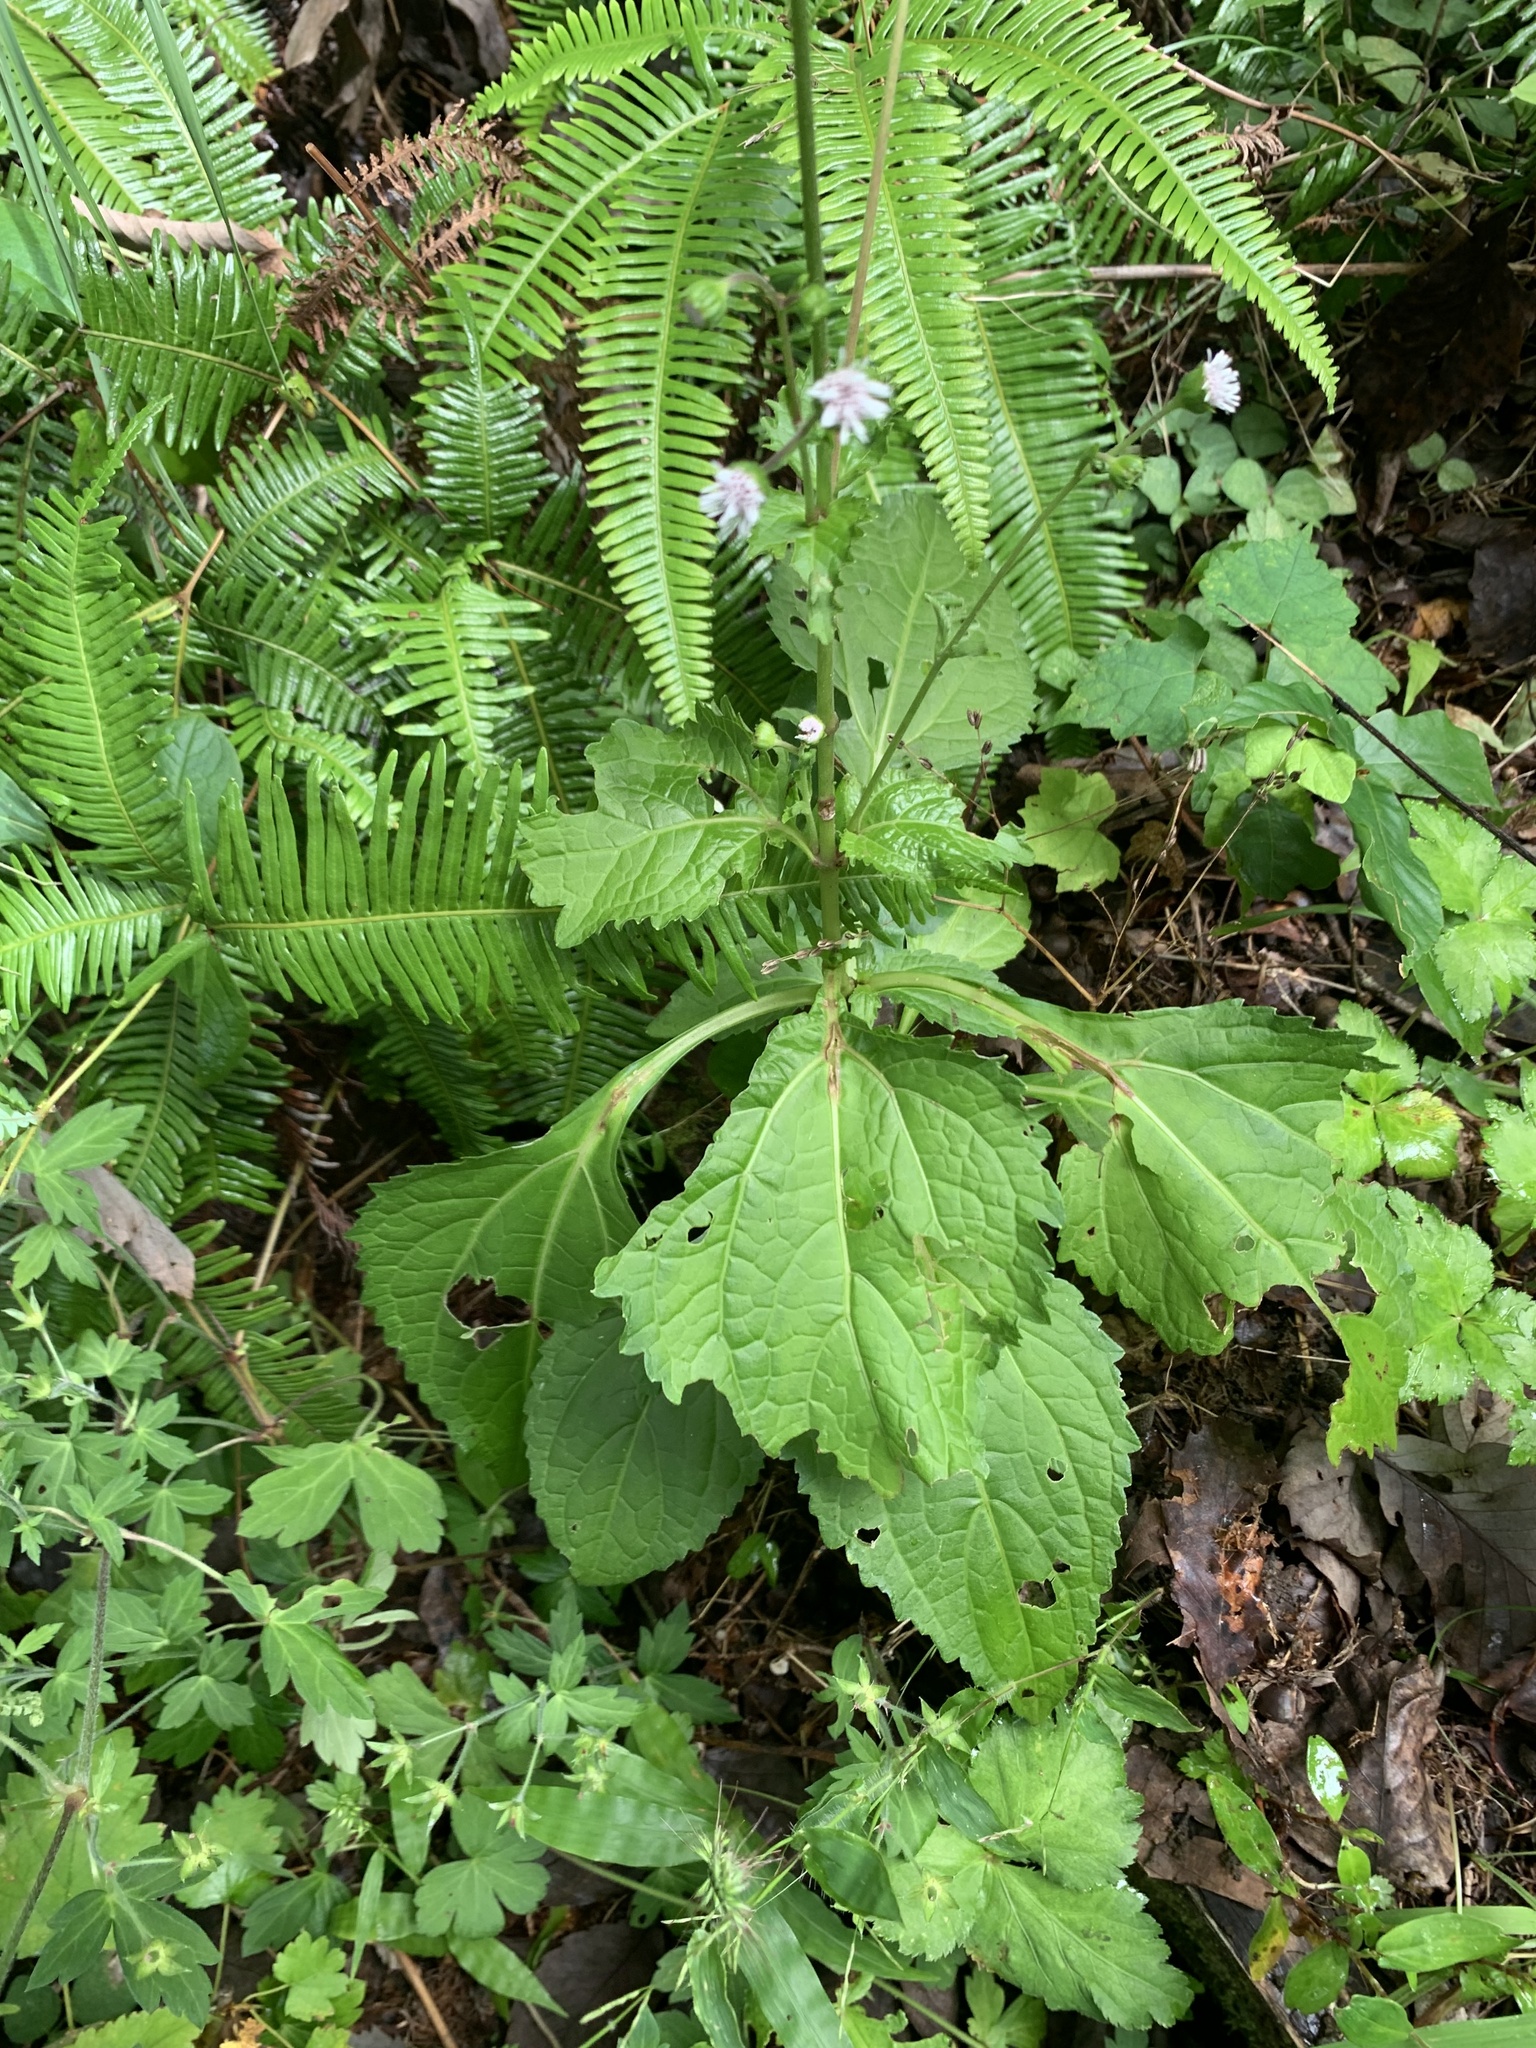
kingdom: Plantae
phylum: Tracheophyta
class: Magnoliopsida
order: Asterales
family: Asteraceae
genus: Adenostemma
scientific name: Adenostemma lavenia
